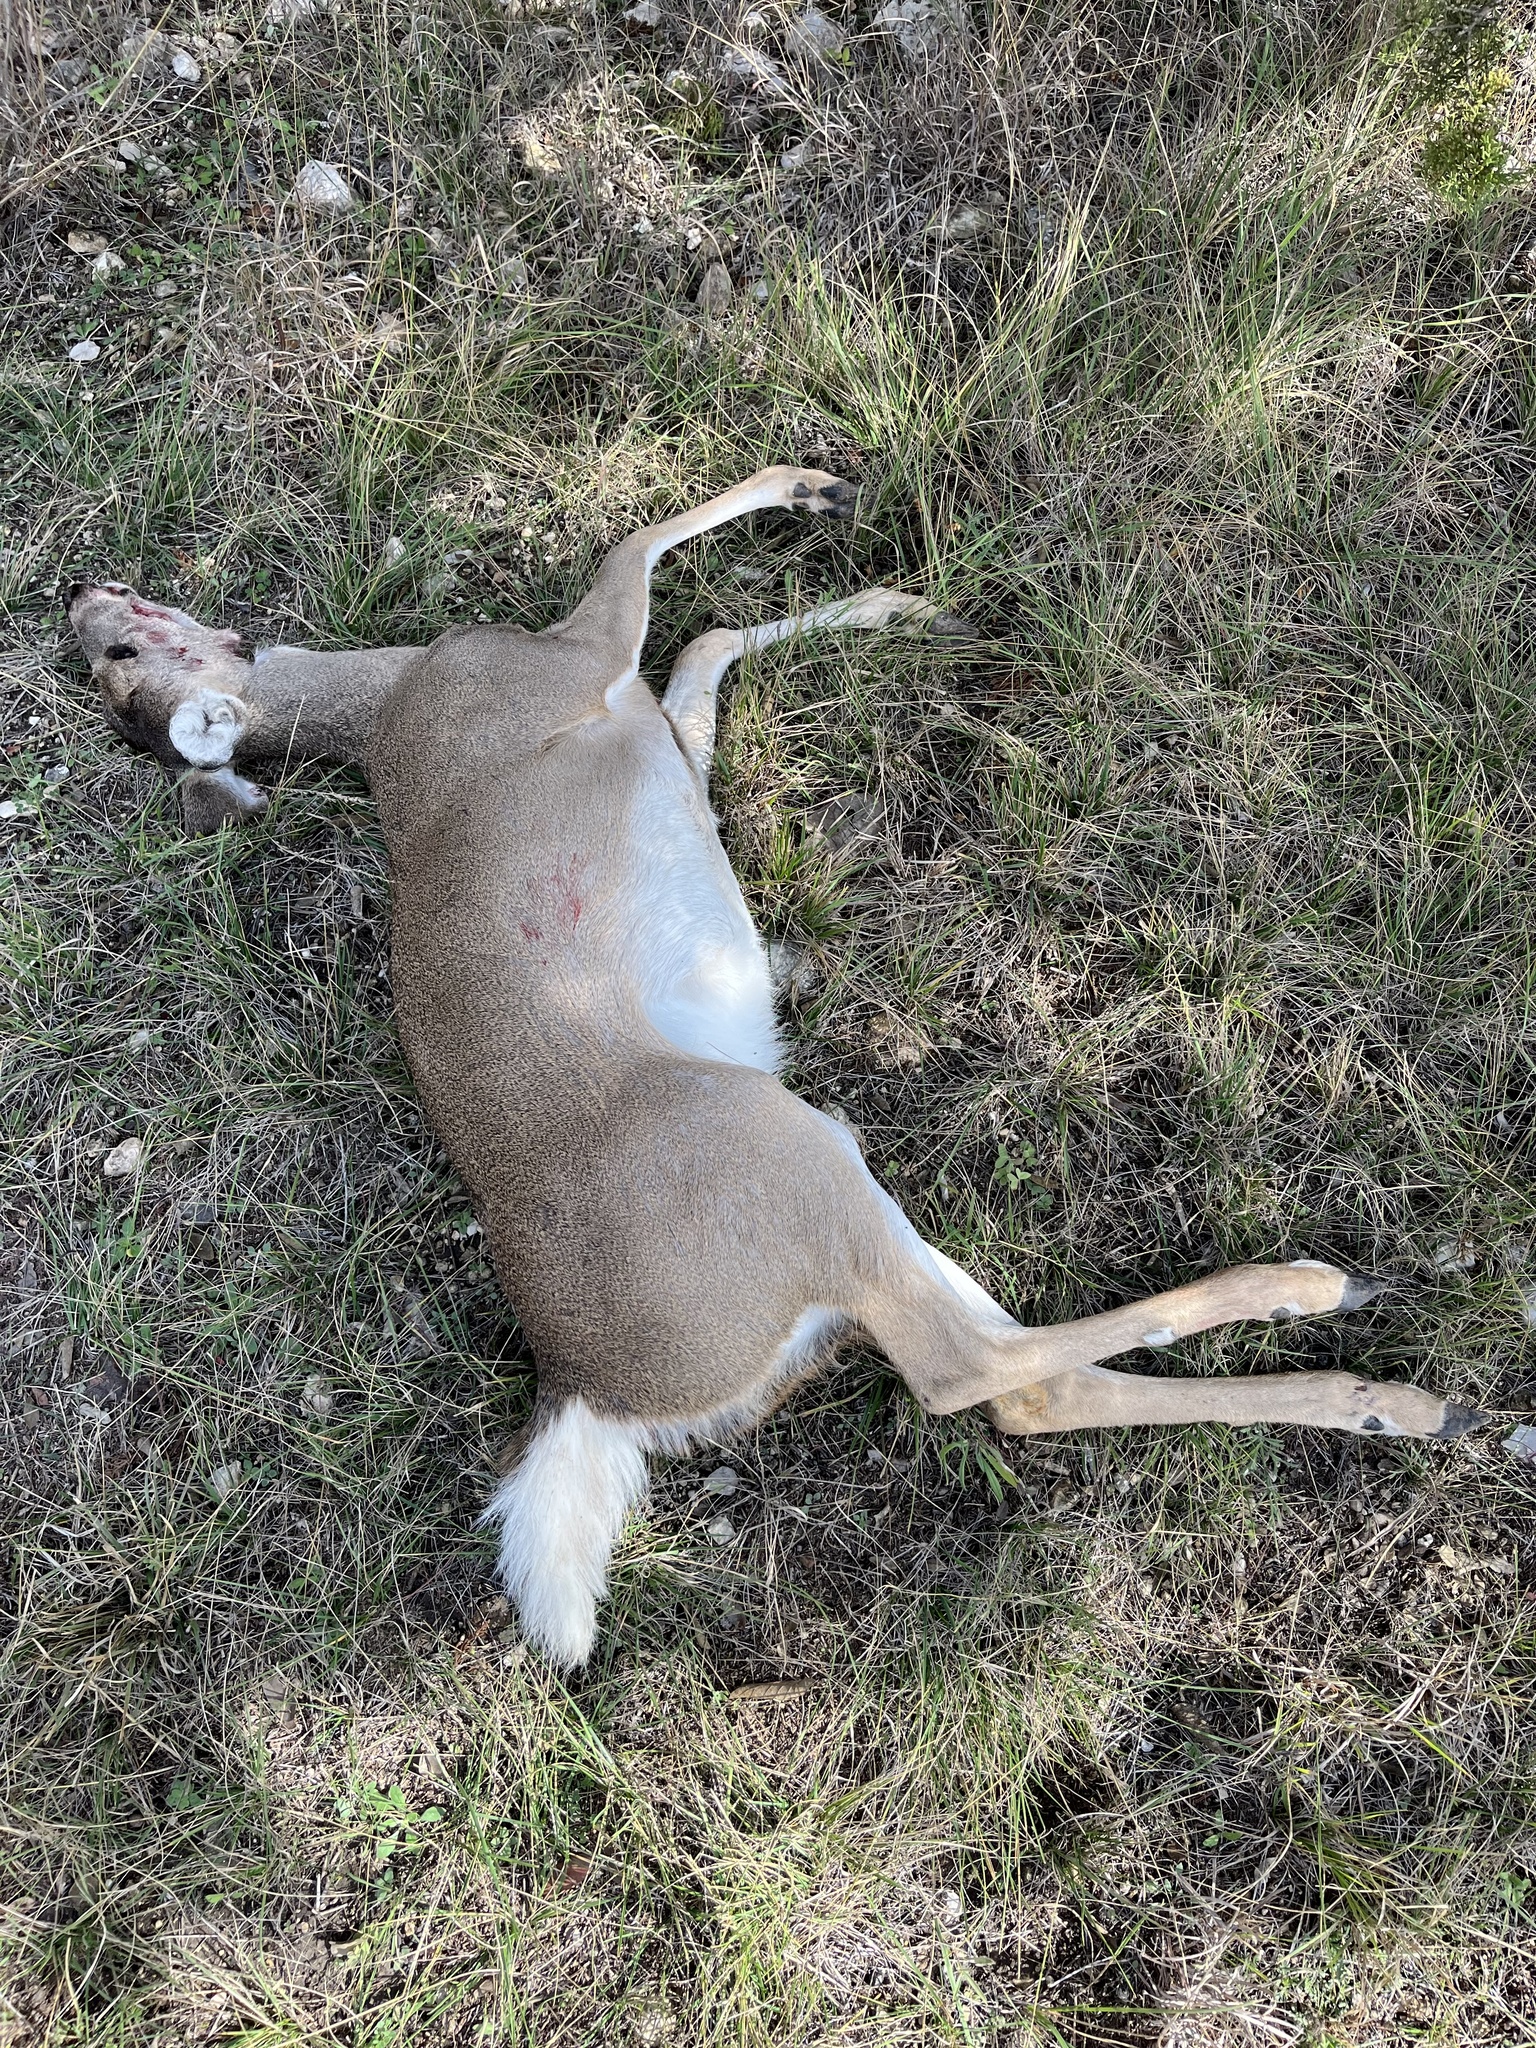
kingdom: Animalia
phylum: Chordata
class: Mammalia
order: Artiodactyla
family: Cervidae
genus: Odocoileus
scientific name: Odocoileus virginianus
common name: White-tailed deer
